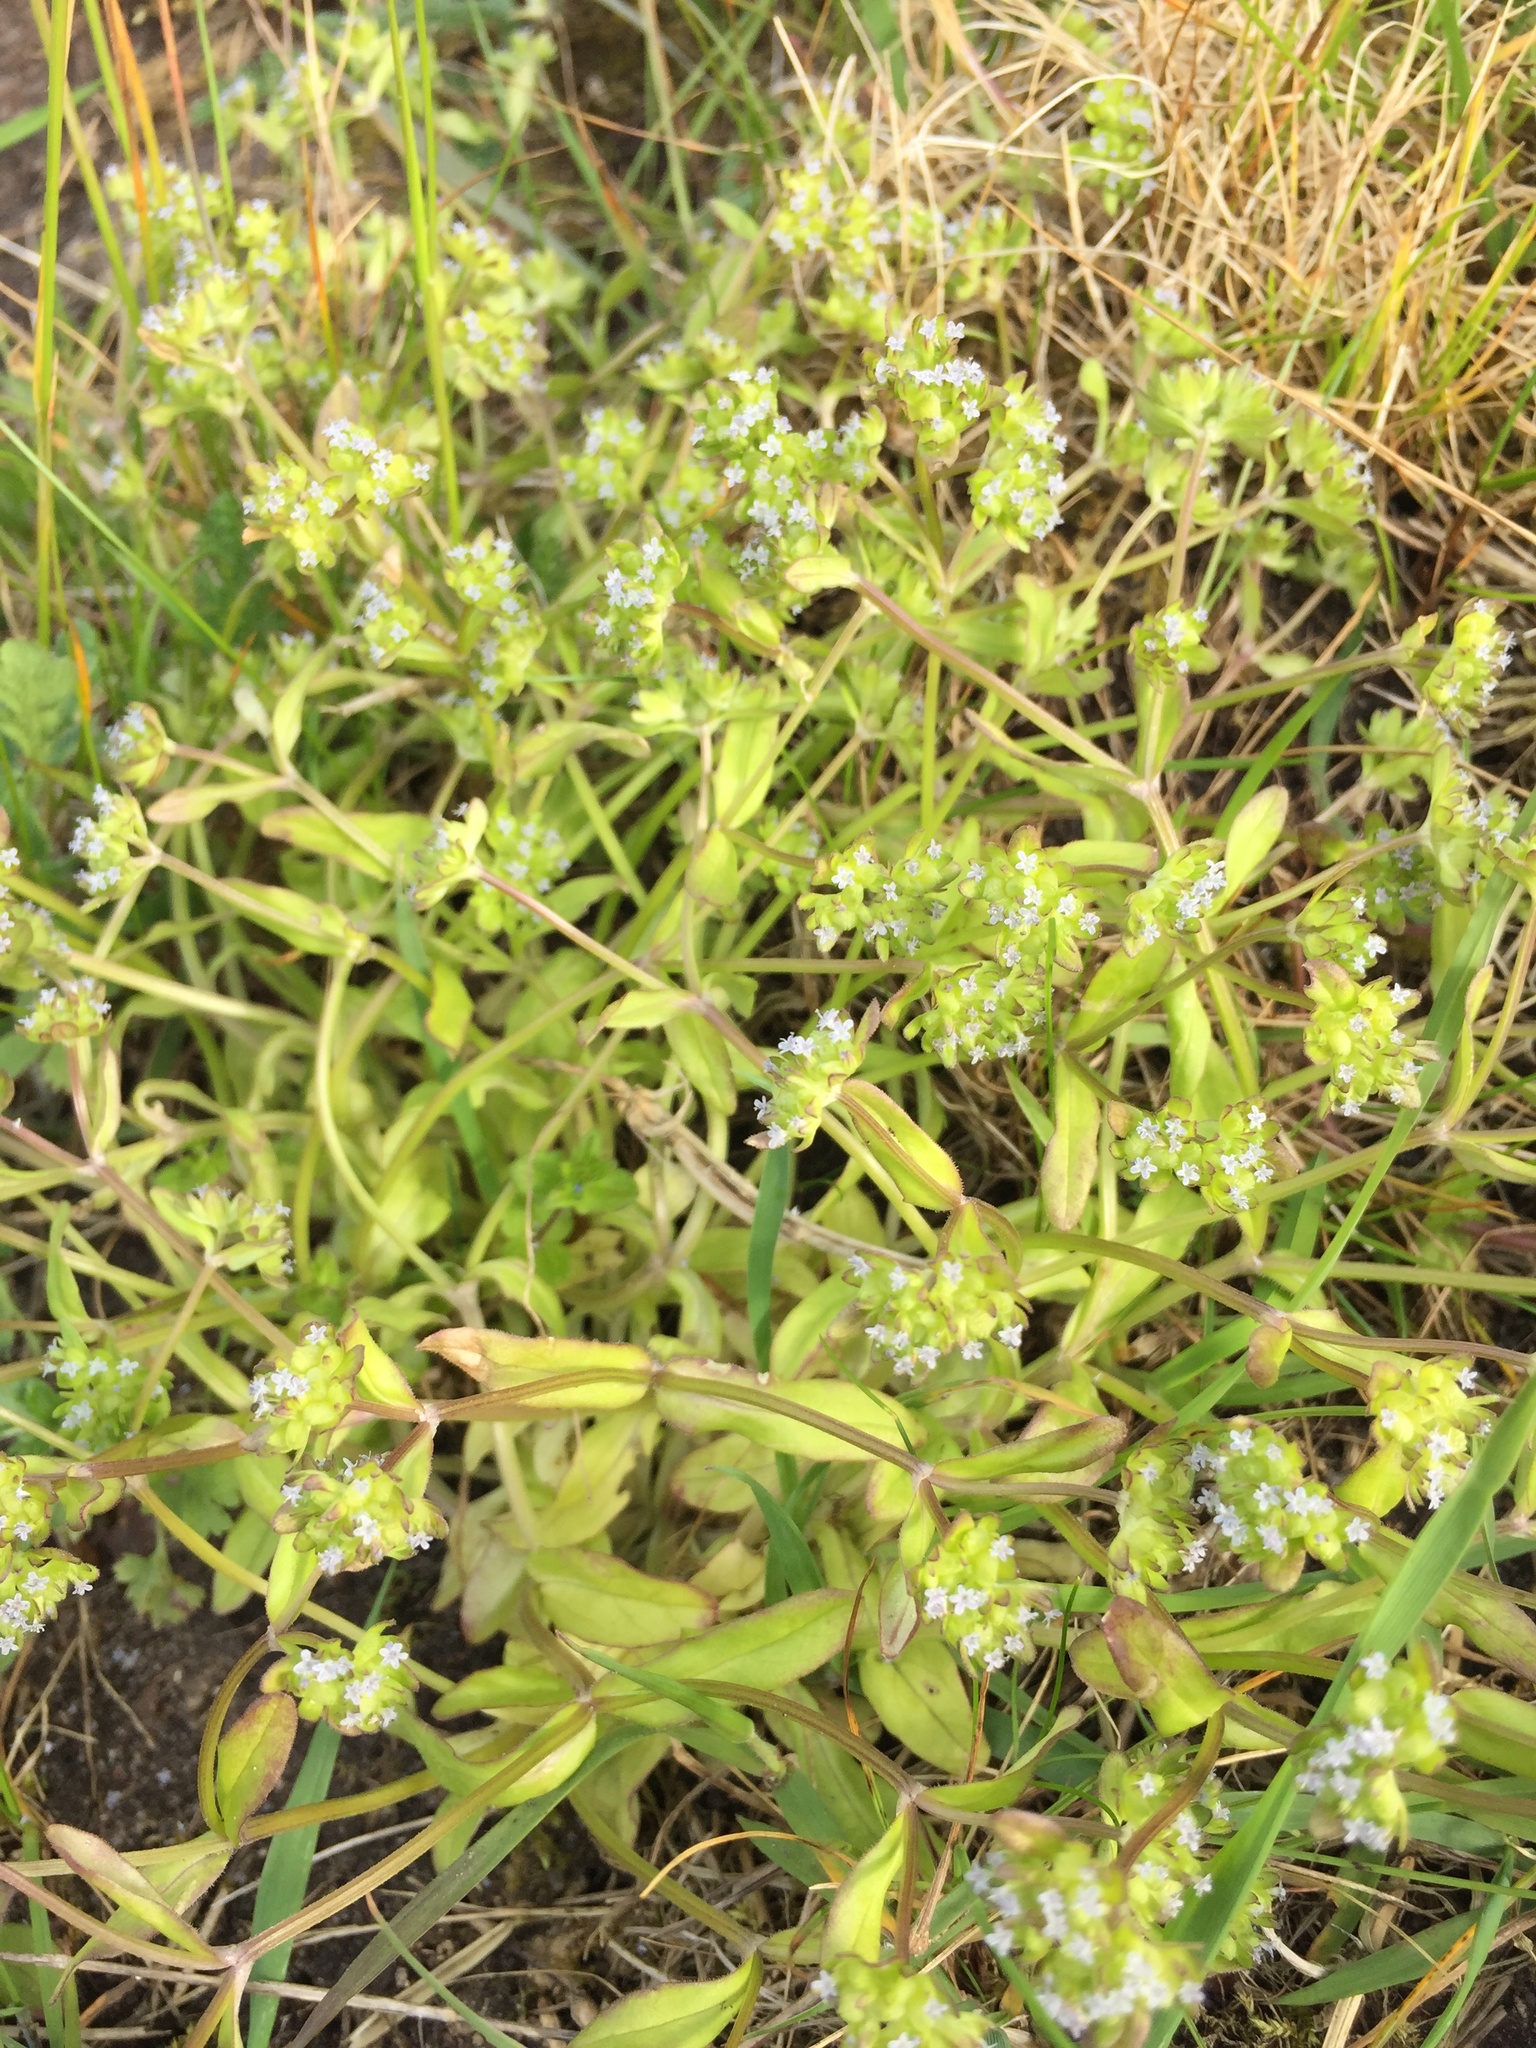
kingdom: Plantae
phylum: Tracheophyta
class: Magnoliopsida
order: Dipsacales
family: Caprifoliaceae
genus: Valerianella
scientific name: Valerianella locusta
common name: Common cornsalad
